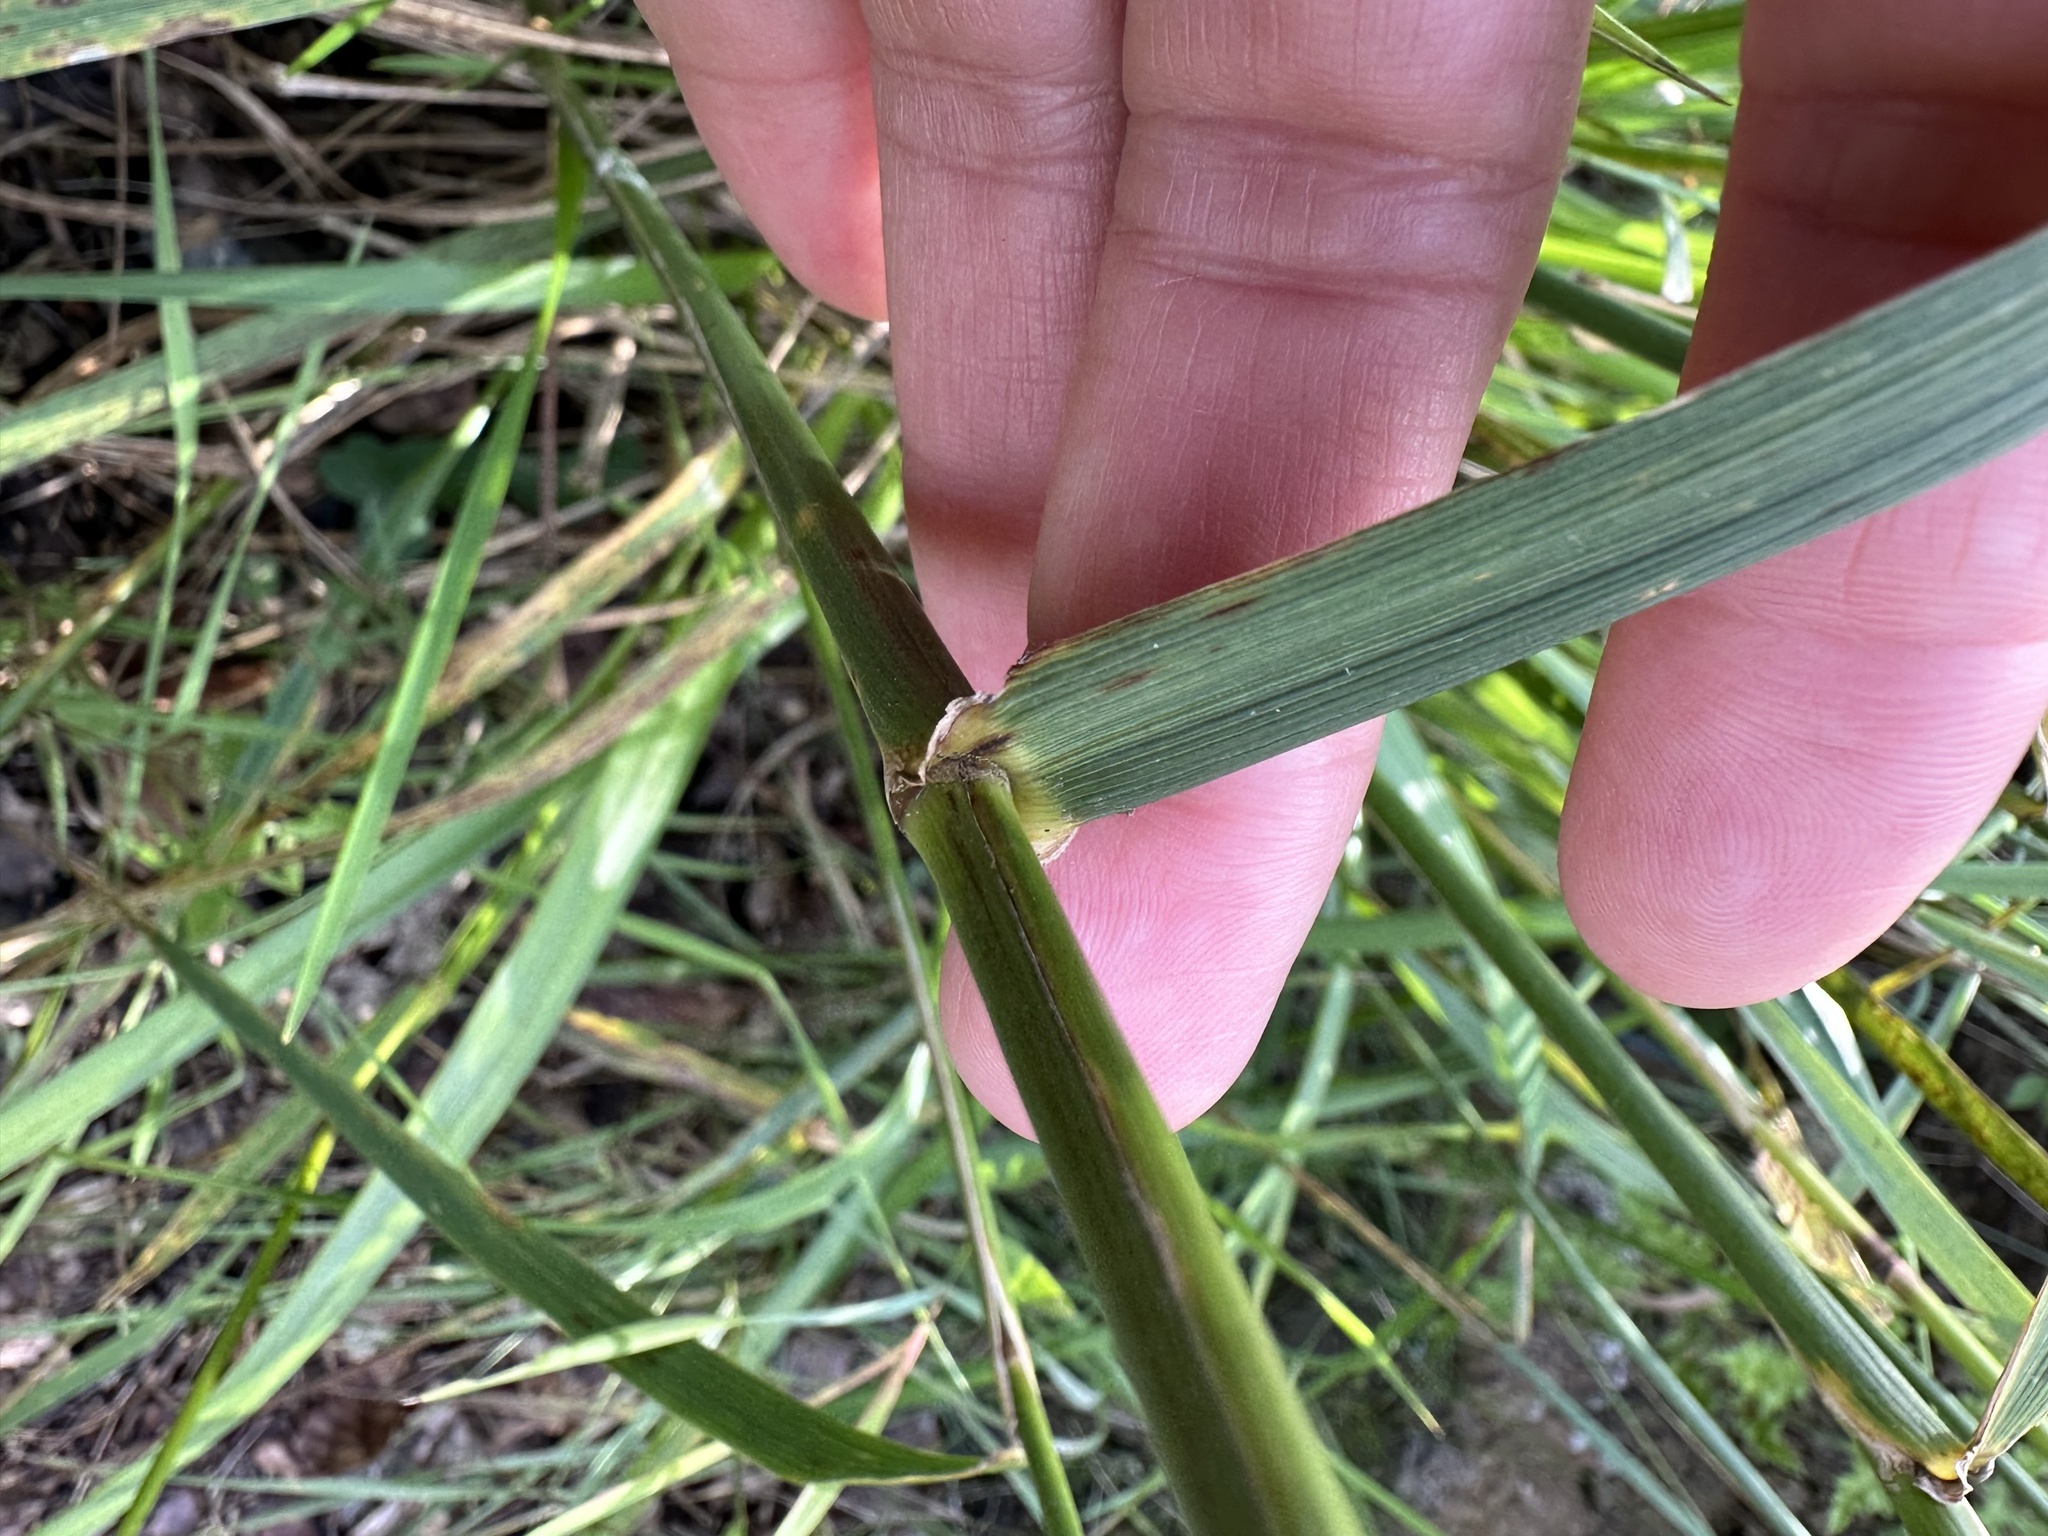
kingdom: Plantae
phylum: Tracheophyta
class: Liliopsida
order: Poales
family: Poaceae
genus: Lolium
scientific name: Lolium arundinaceum
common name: Reed fescue
